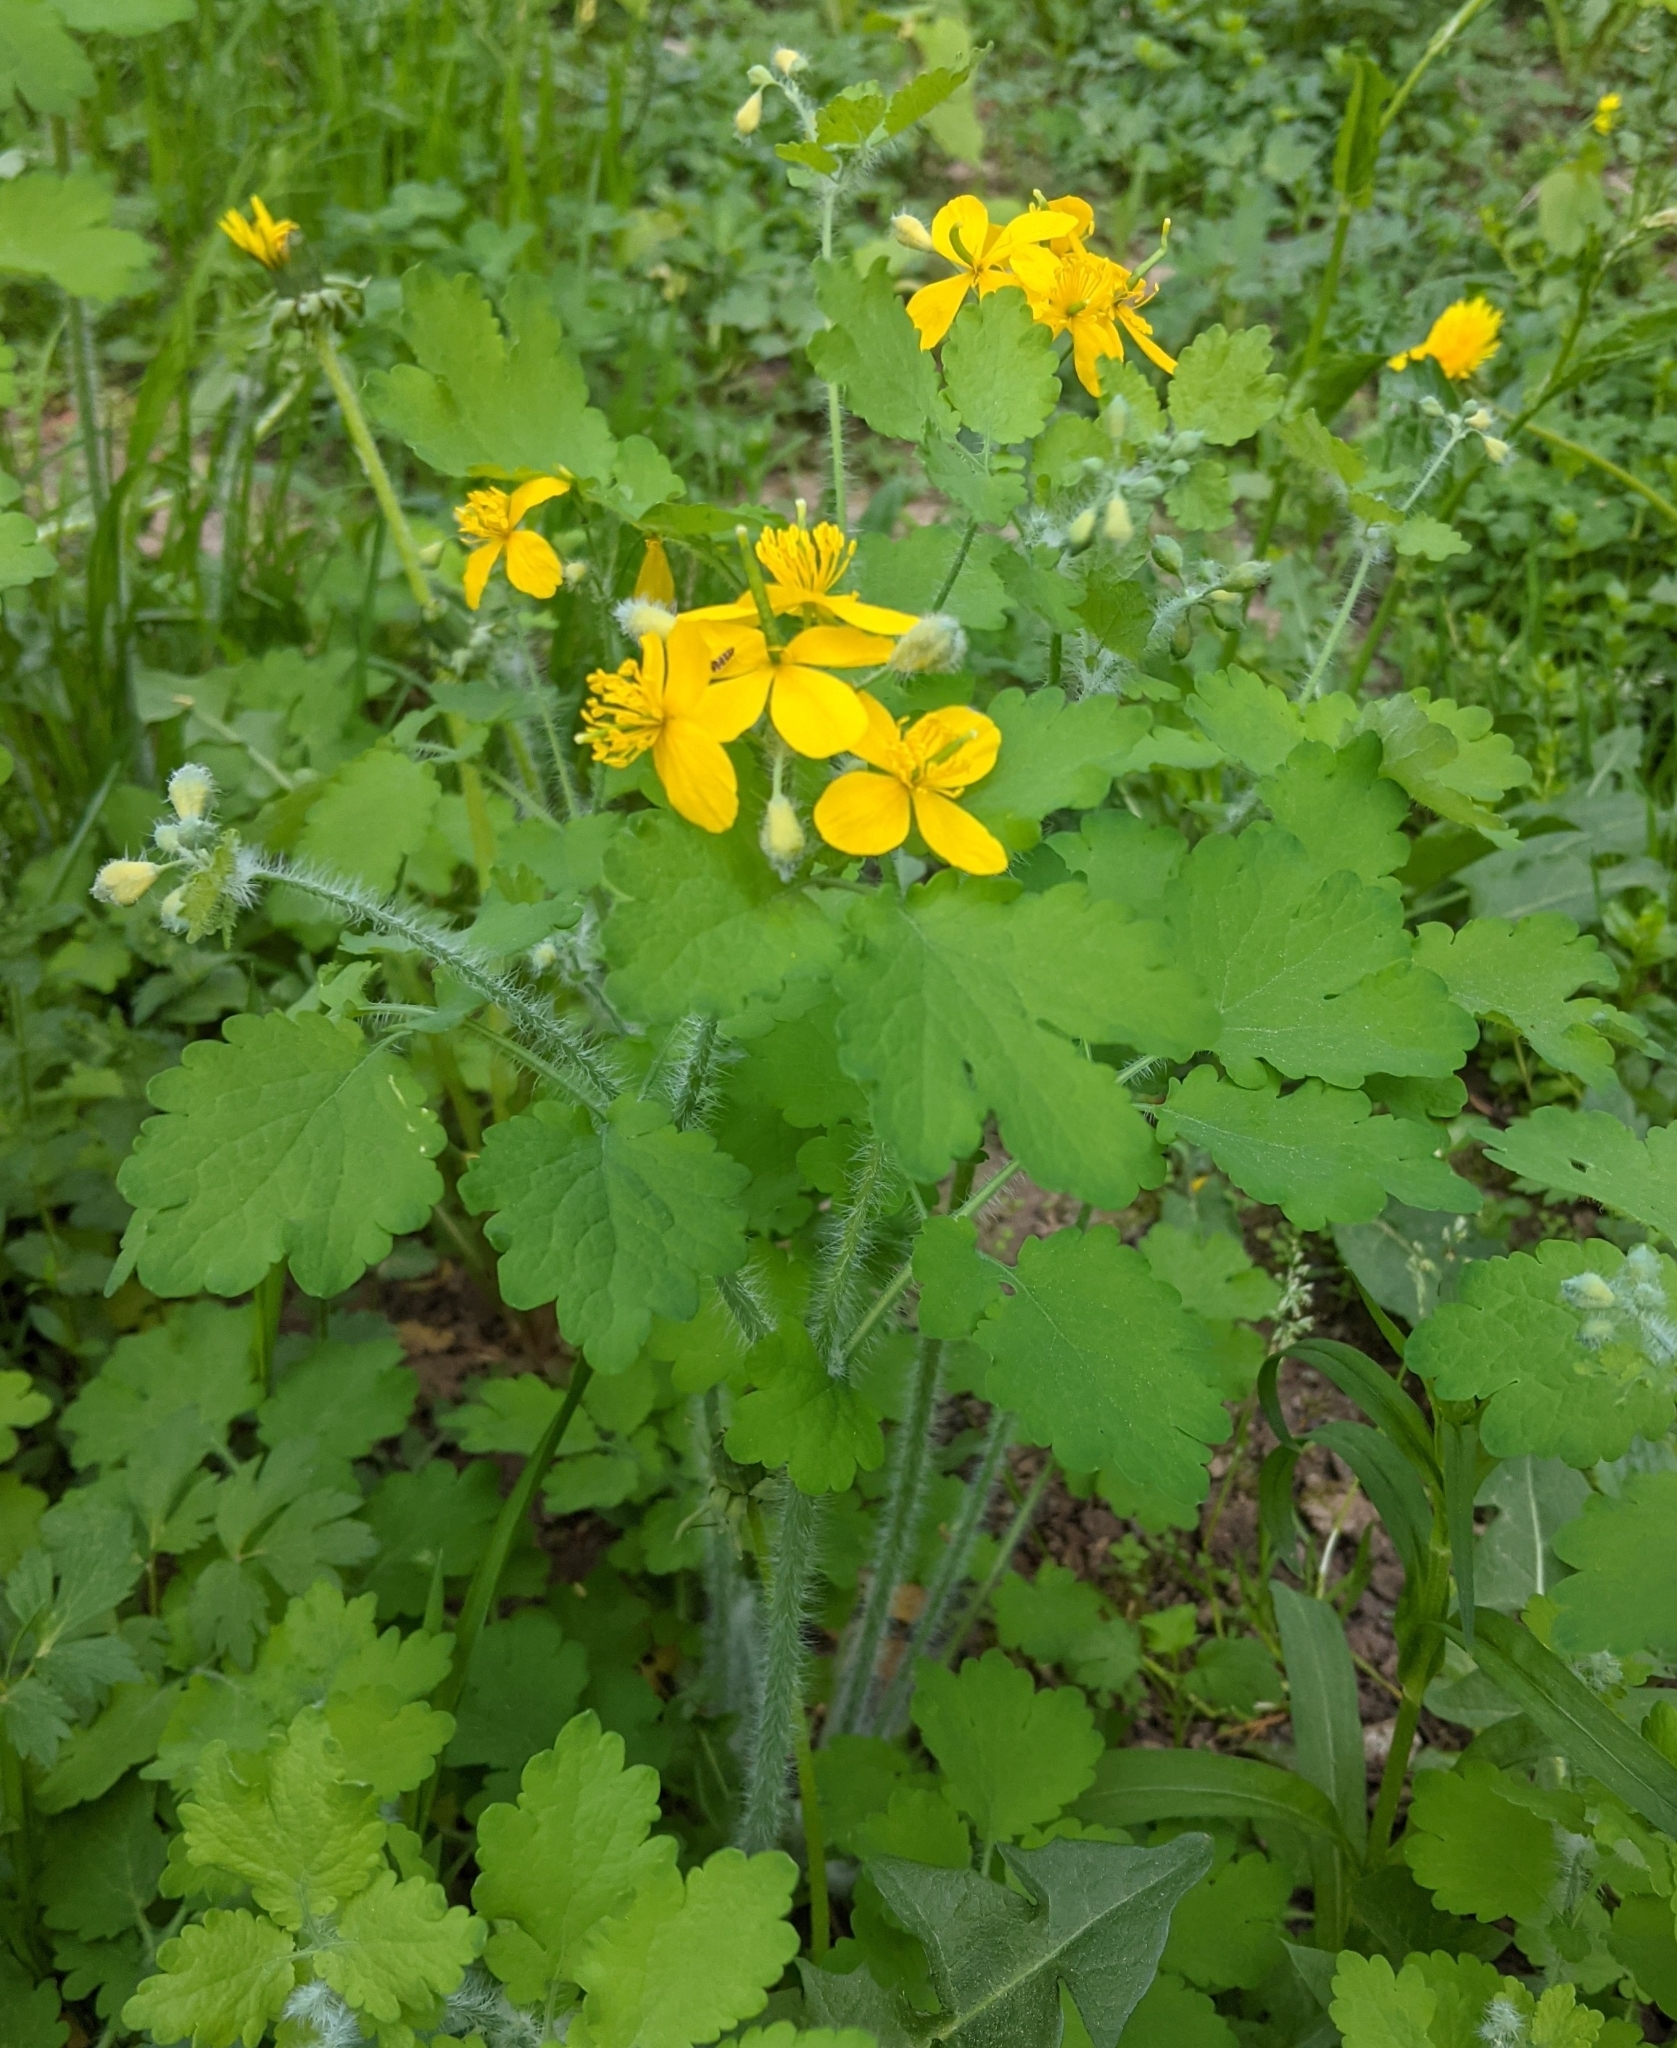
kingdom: Plantae
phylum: Tracheophyta
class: Magnoliopsida
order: Ranunculales
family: Papaveraceae
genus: Chelidonium
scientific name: Chelidonium majus
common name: Greater celandine
